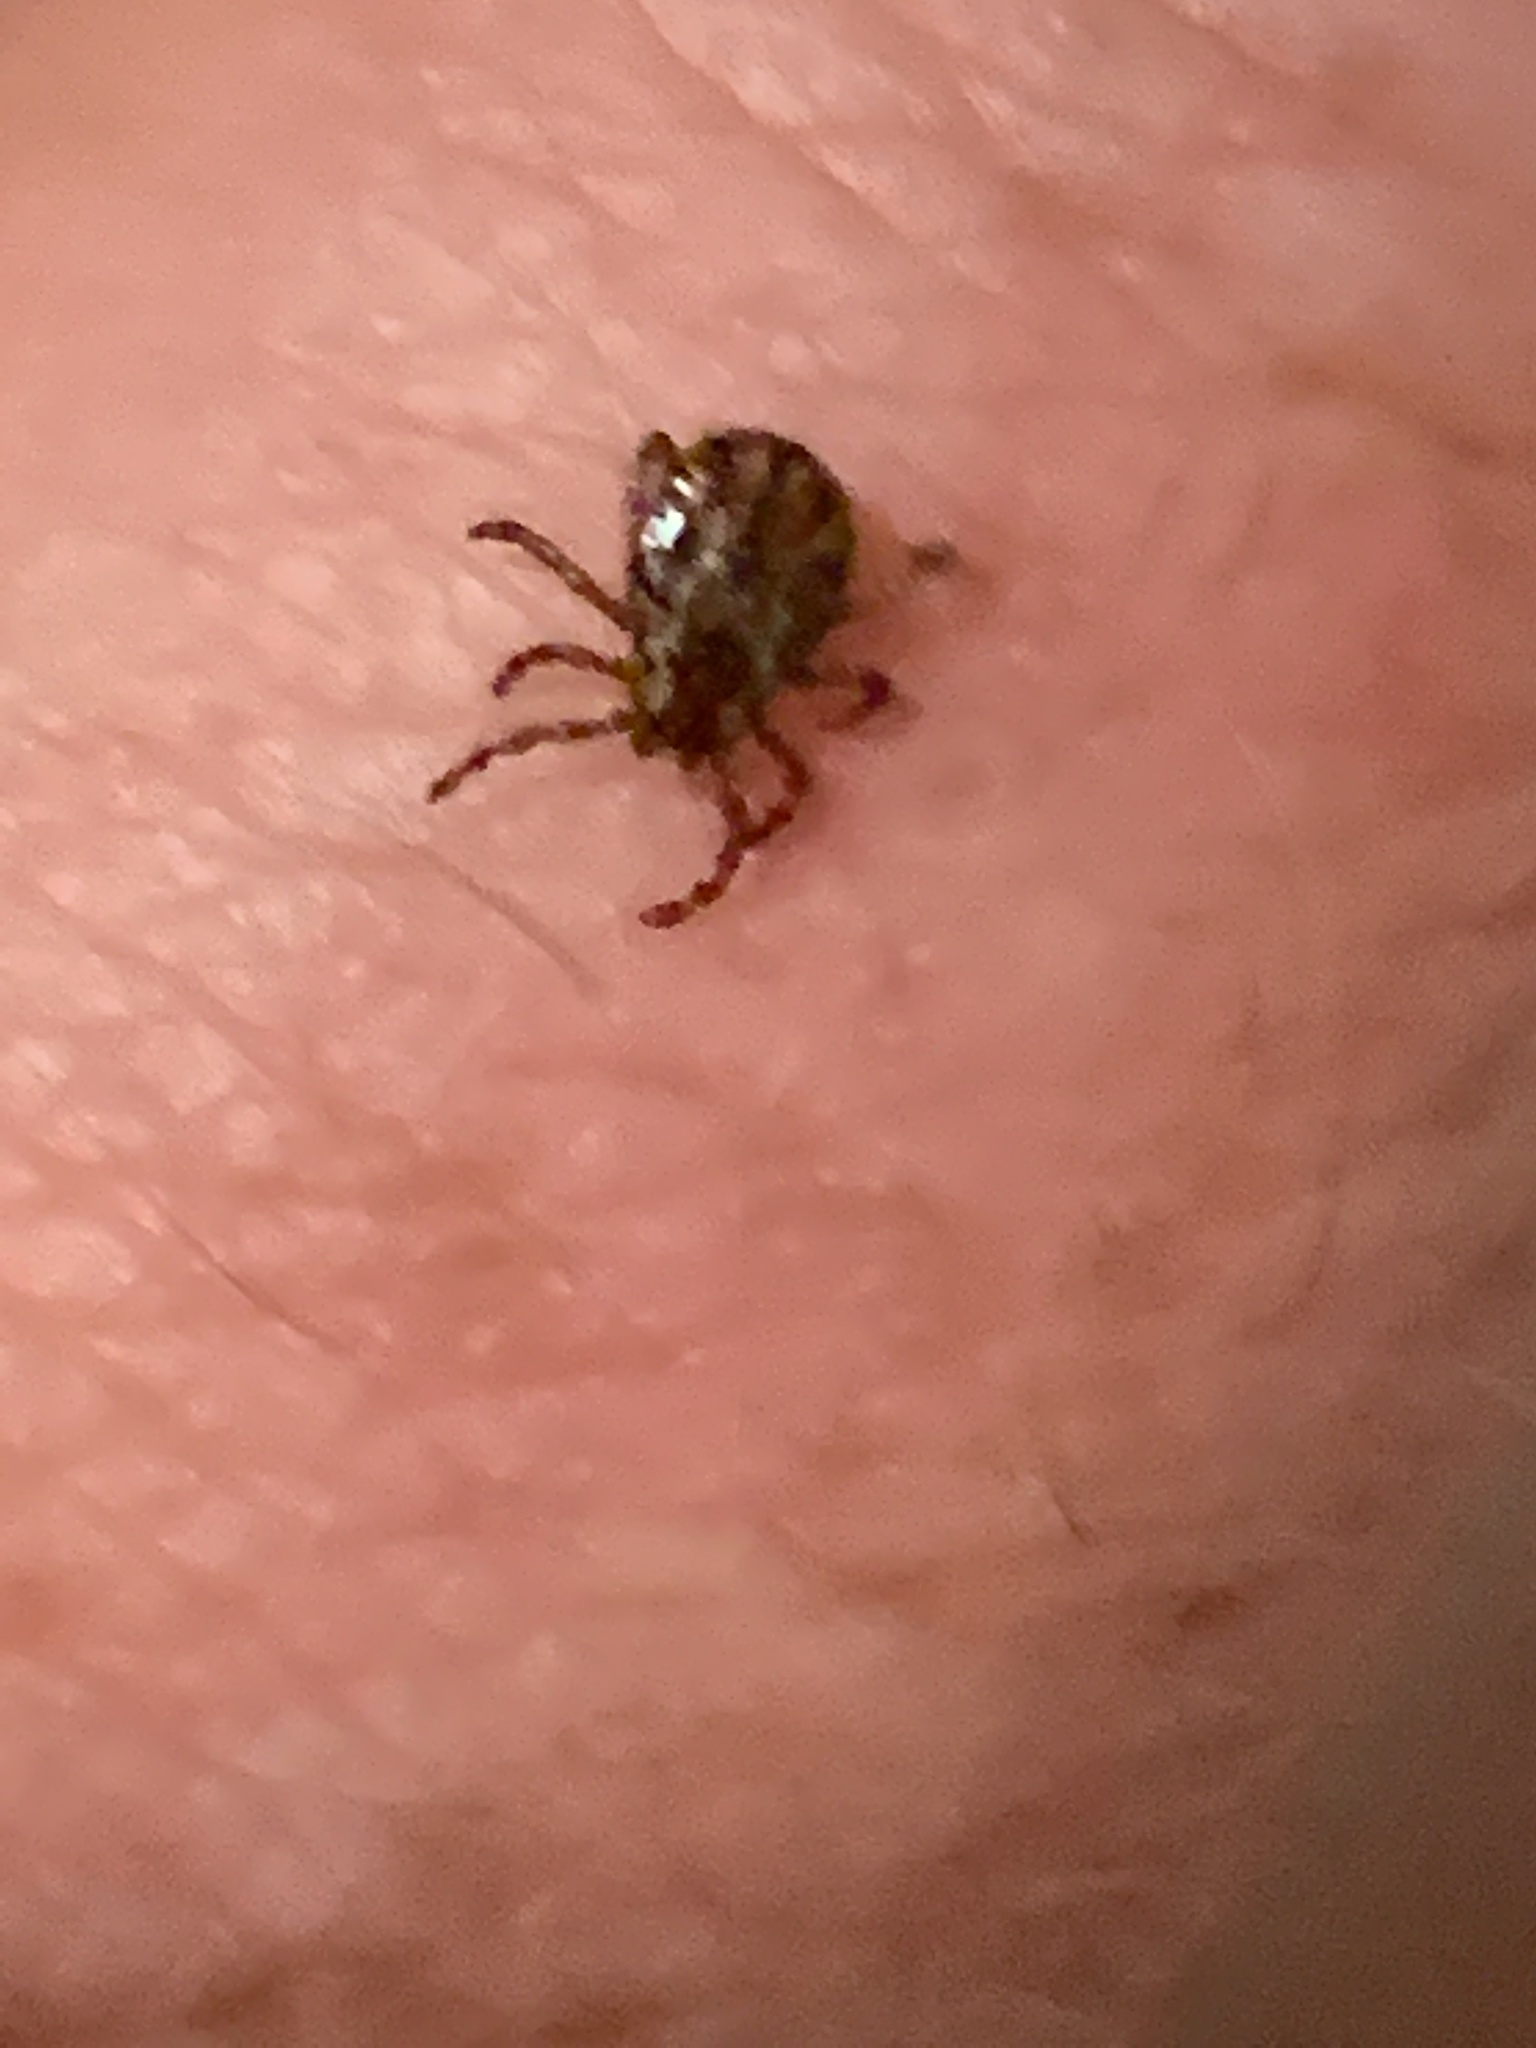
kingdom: Animalia
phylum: Arthropoda
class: Arachnida
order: Ixodida
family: Ixodidae
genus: Dermacentor
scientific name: Dermacentor variabilis
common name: American dog tick
